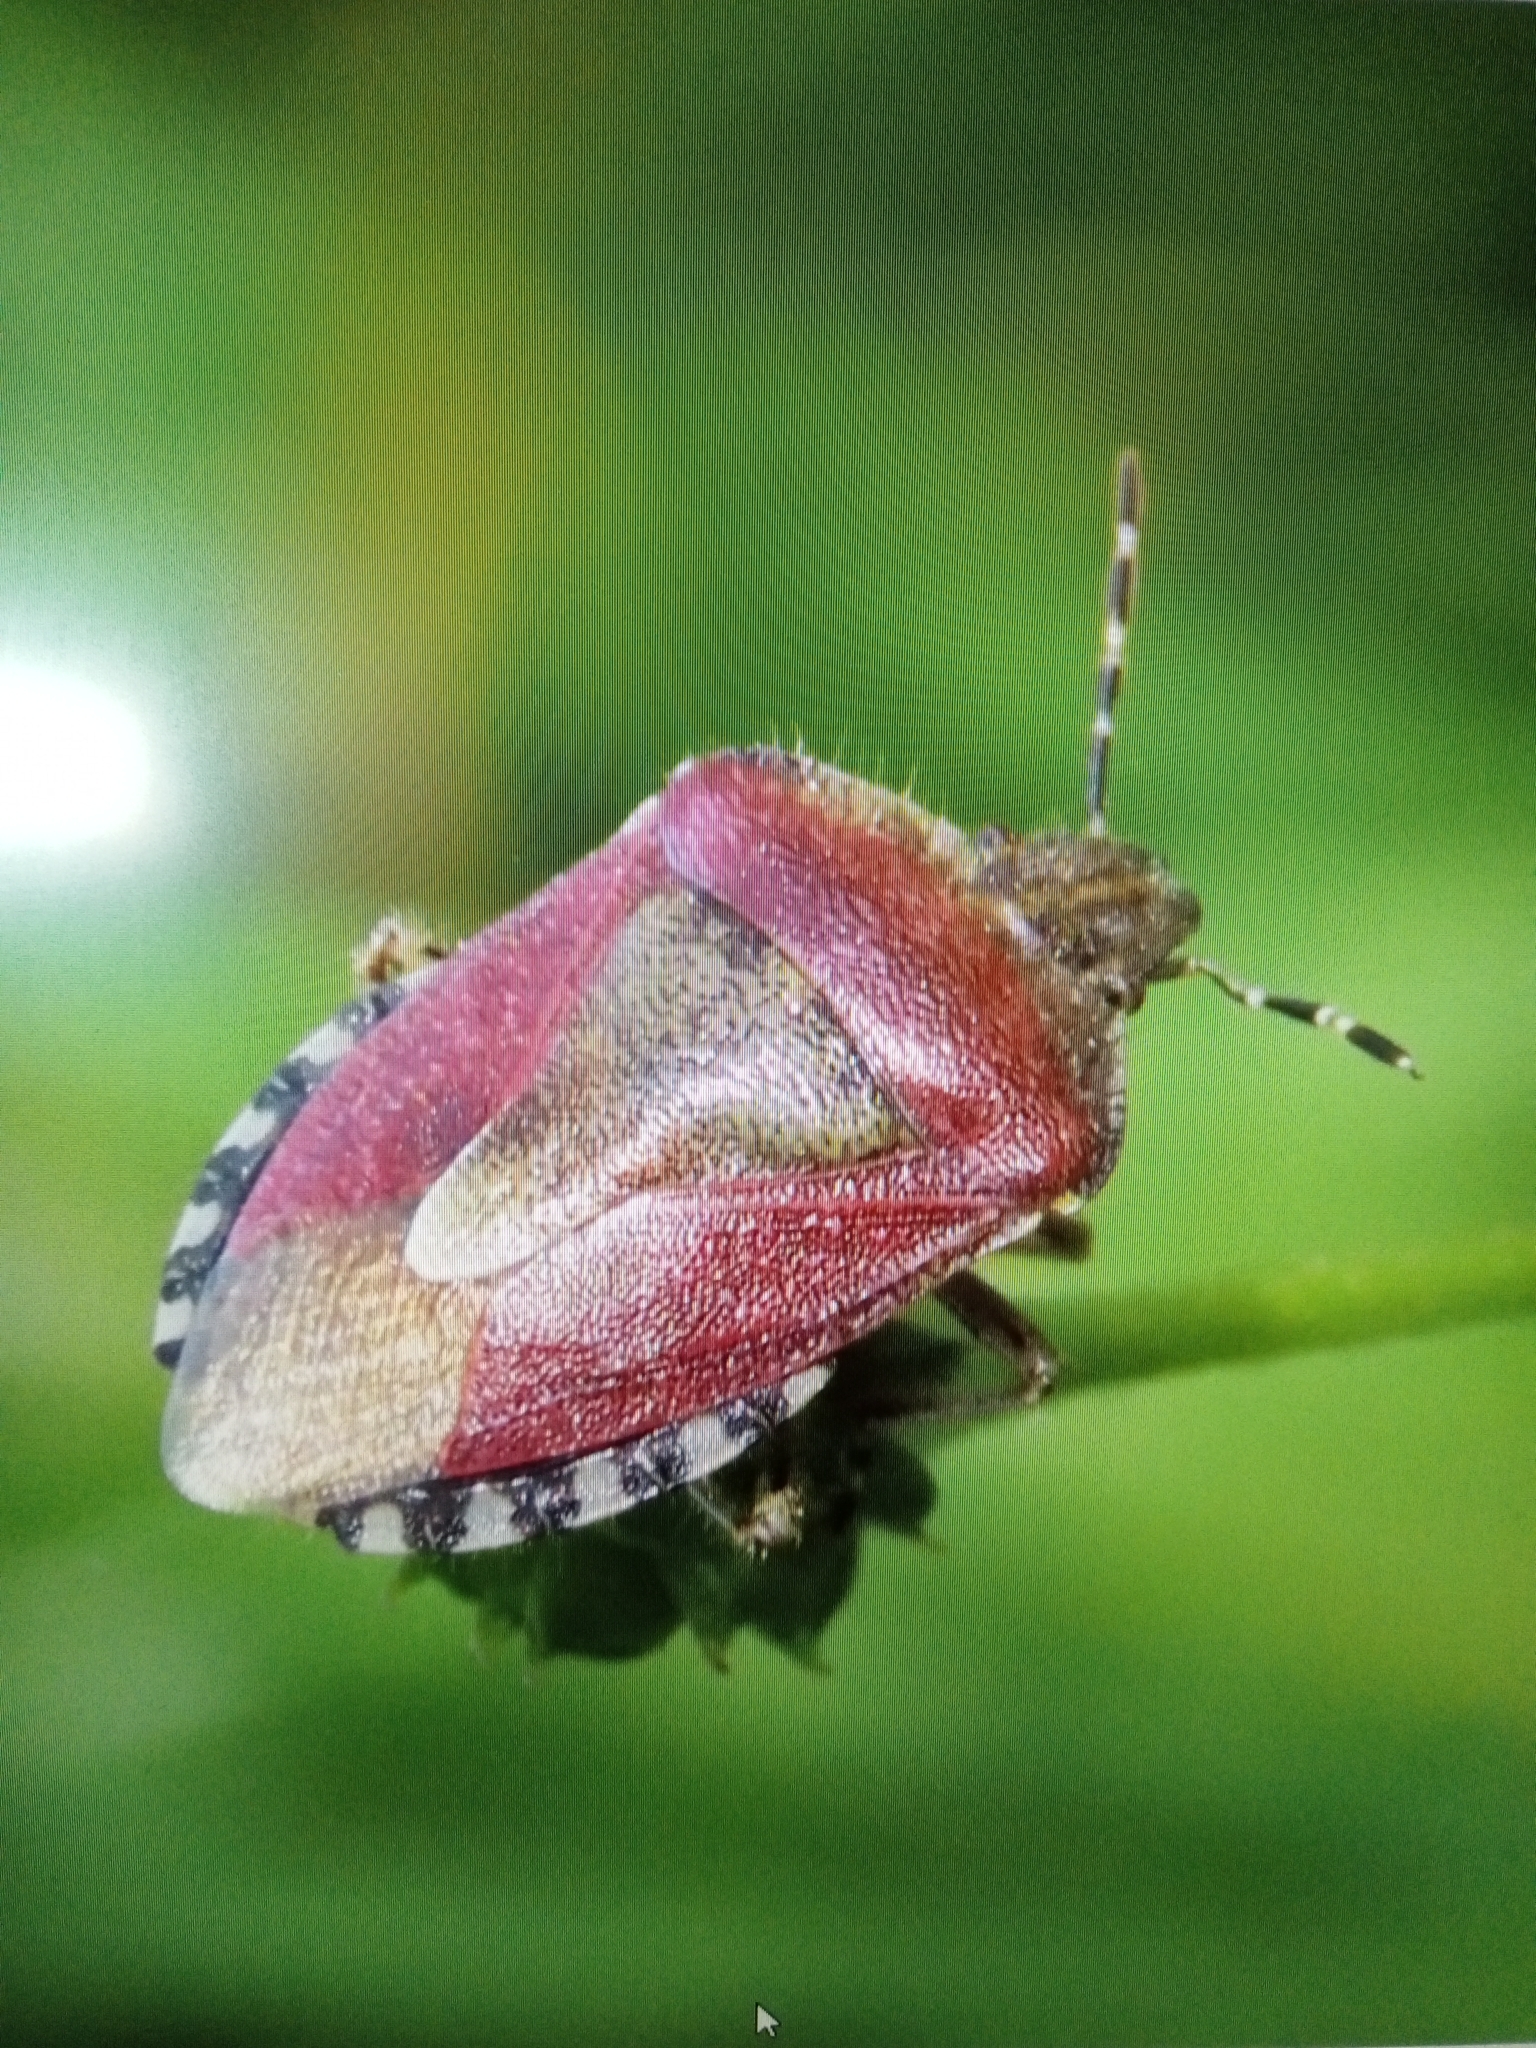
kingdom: Animalia
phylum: Arthropoda
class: Insecta
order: Hemiptera
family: Pentatomidae
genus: Dolycoris
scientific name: Dolycoris baccarum
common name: Sloe bug
